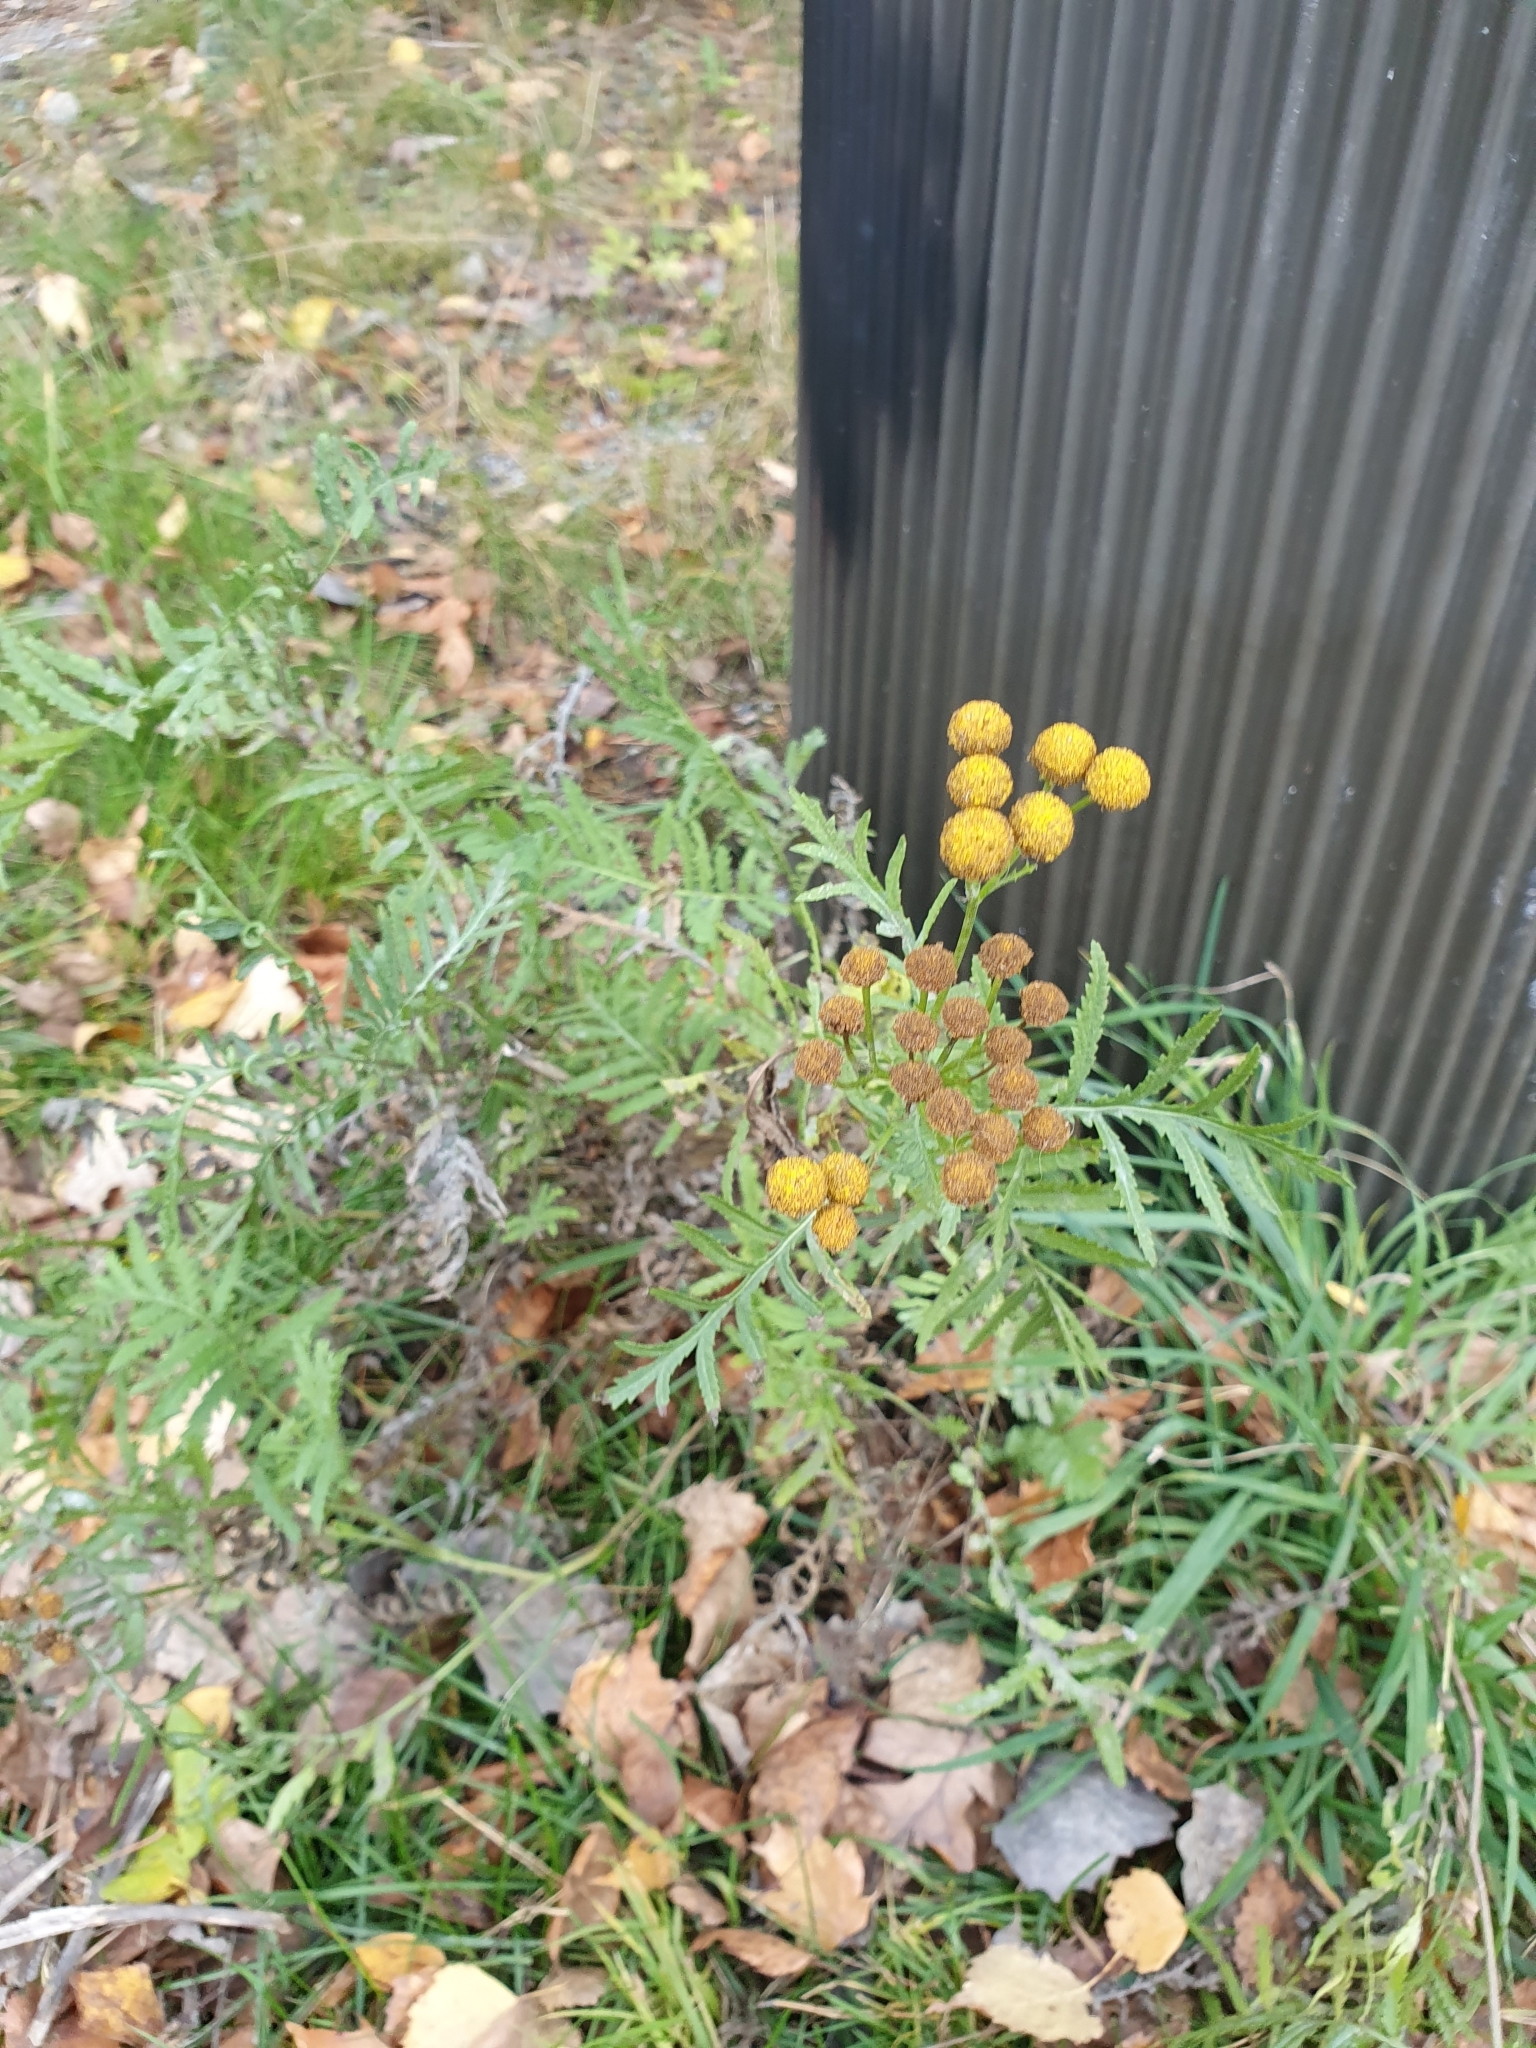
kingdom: Plantae
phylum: Tracheophyta
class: Magnoliopsida
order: Asterales
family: Asteraceae
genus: Tanacetum
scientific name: Tanacetum vulgare
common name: Common tansy
